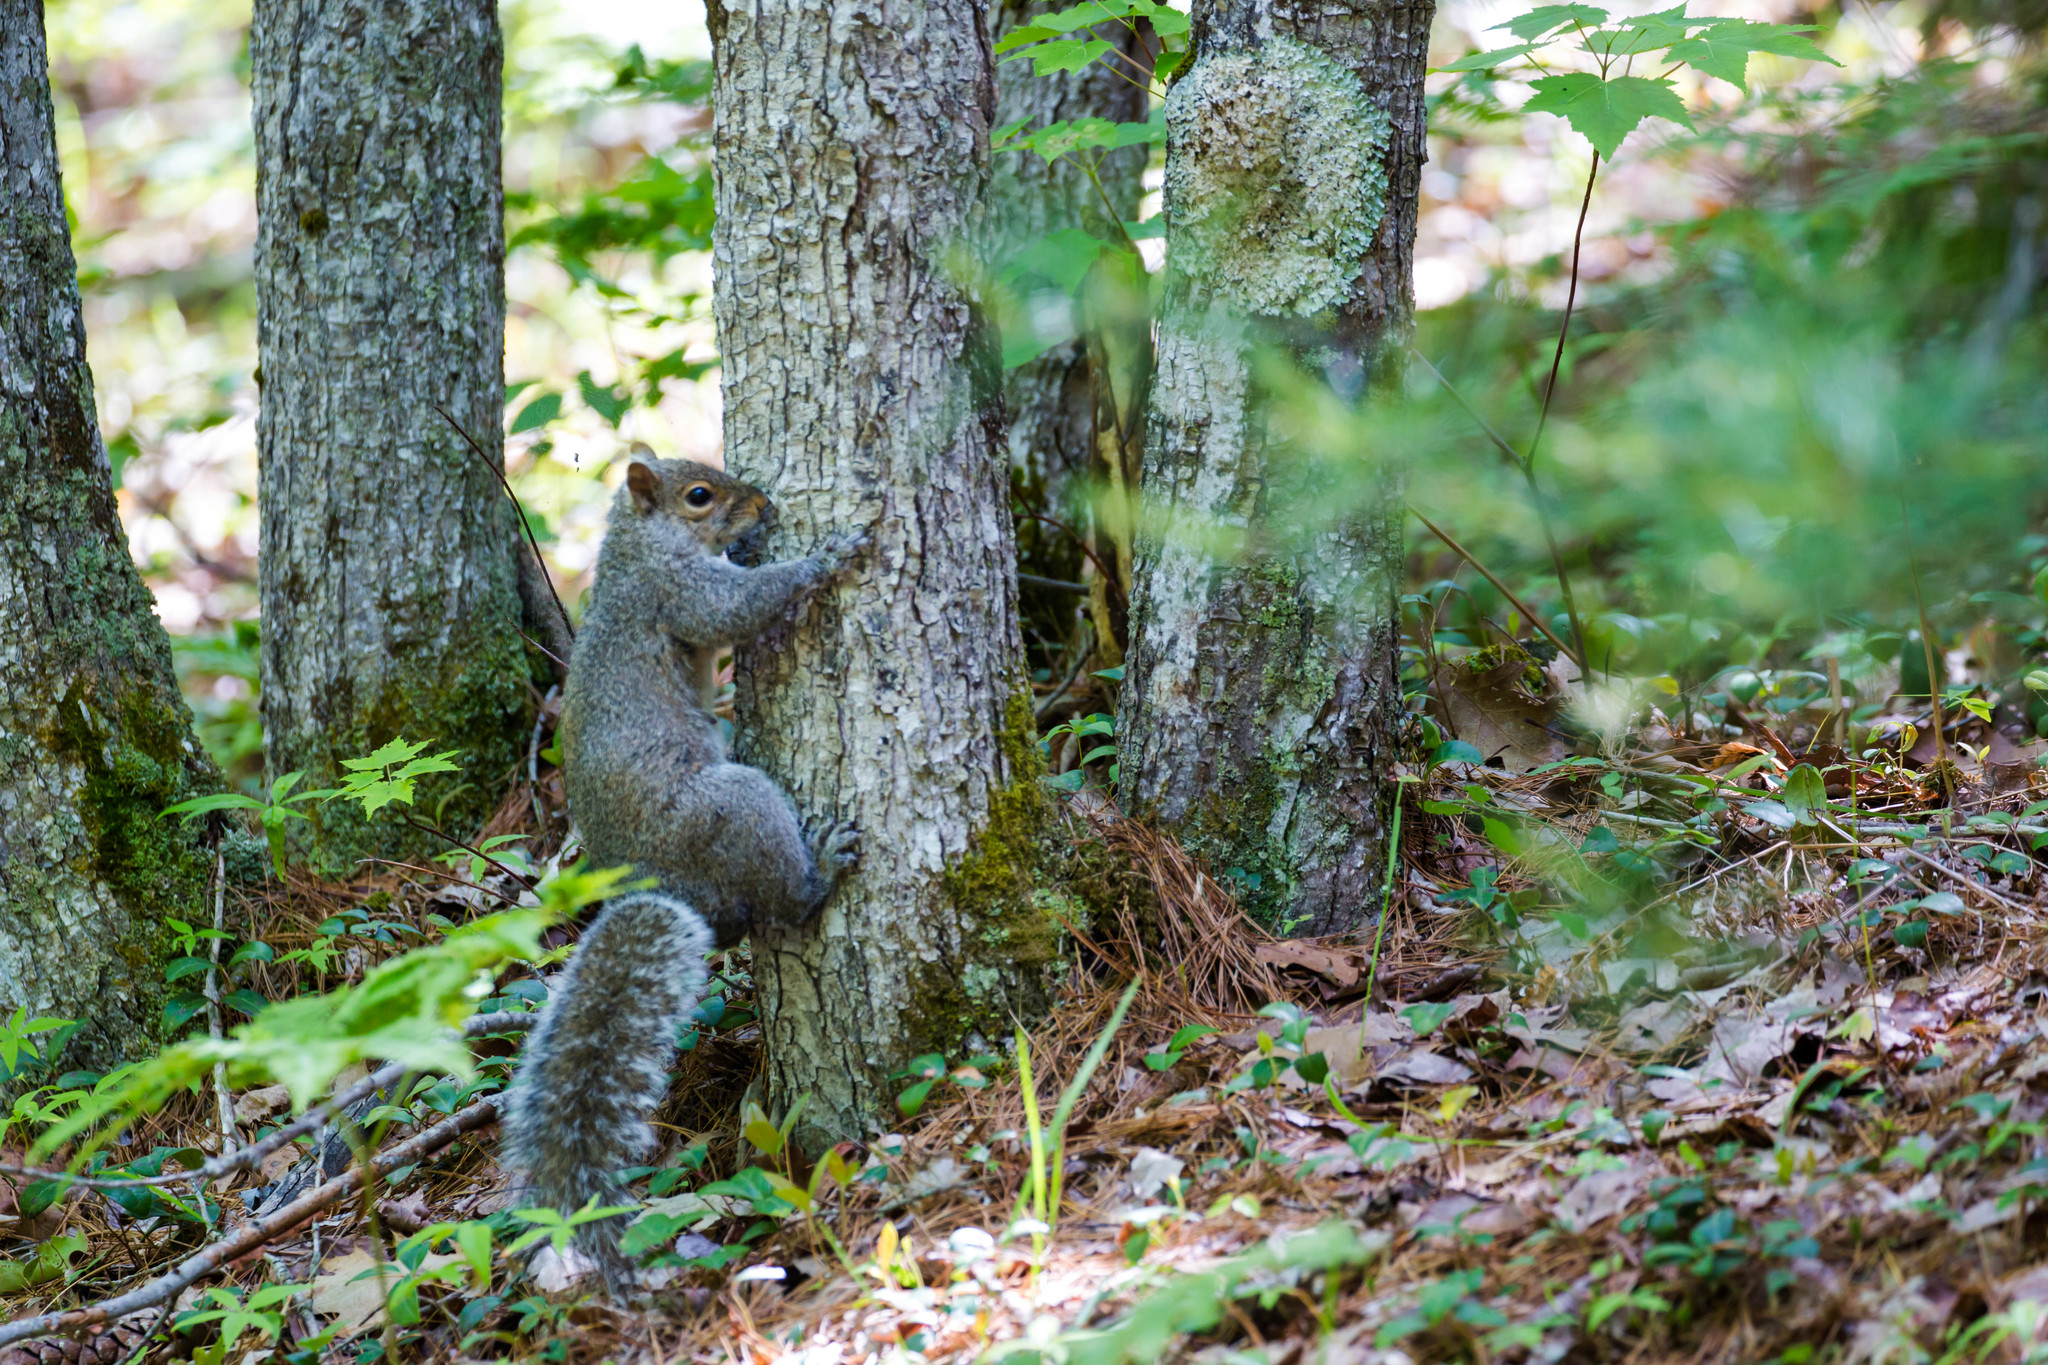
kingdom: Animalia
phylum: Chordata
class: Mammalia
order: Rodentia
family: Sciuridae
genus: Sciurus
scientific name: Sciurus carolinensis
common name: Eastern gray squirrel
